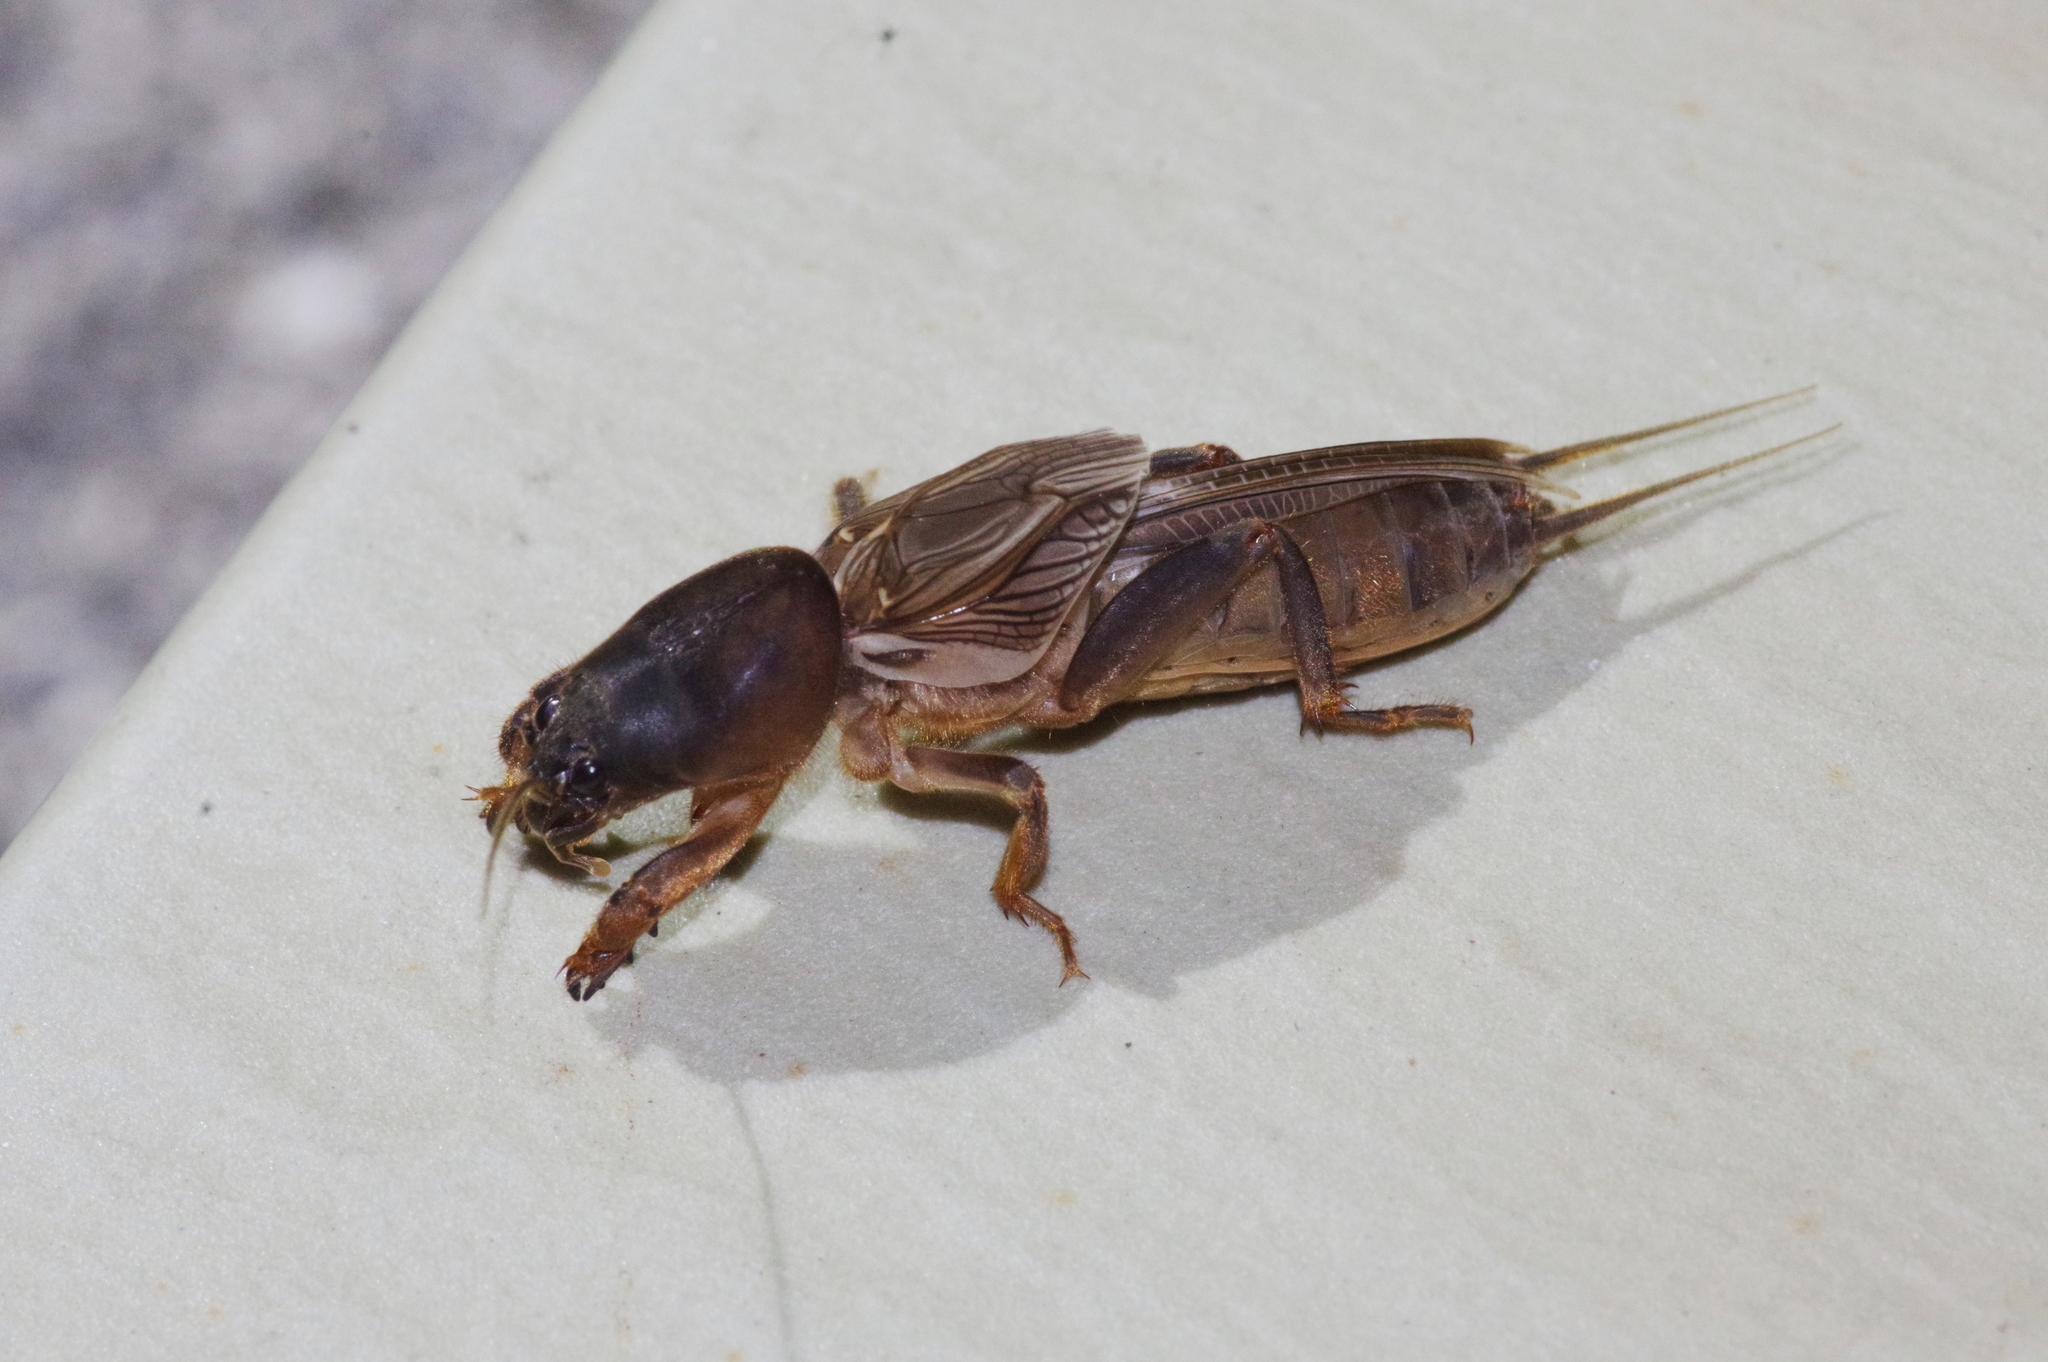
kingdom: Animalia
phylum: Arthropoda
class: Insecta
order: Orthoptera
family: Gryllotalpidae
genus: Gryllotalpa
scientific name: Gryllotalpa orientalis
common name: Grasshopper
